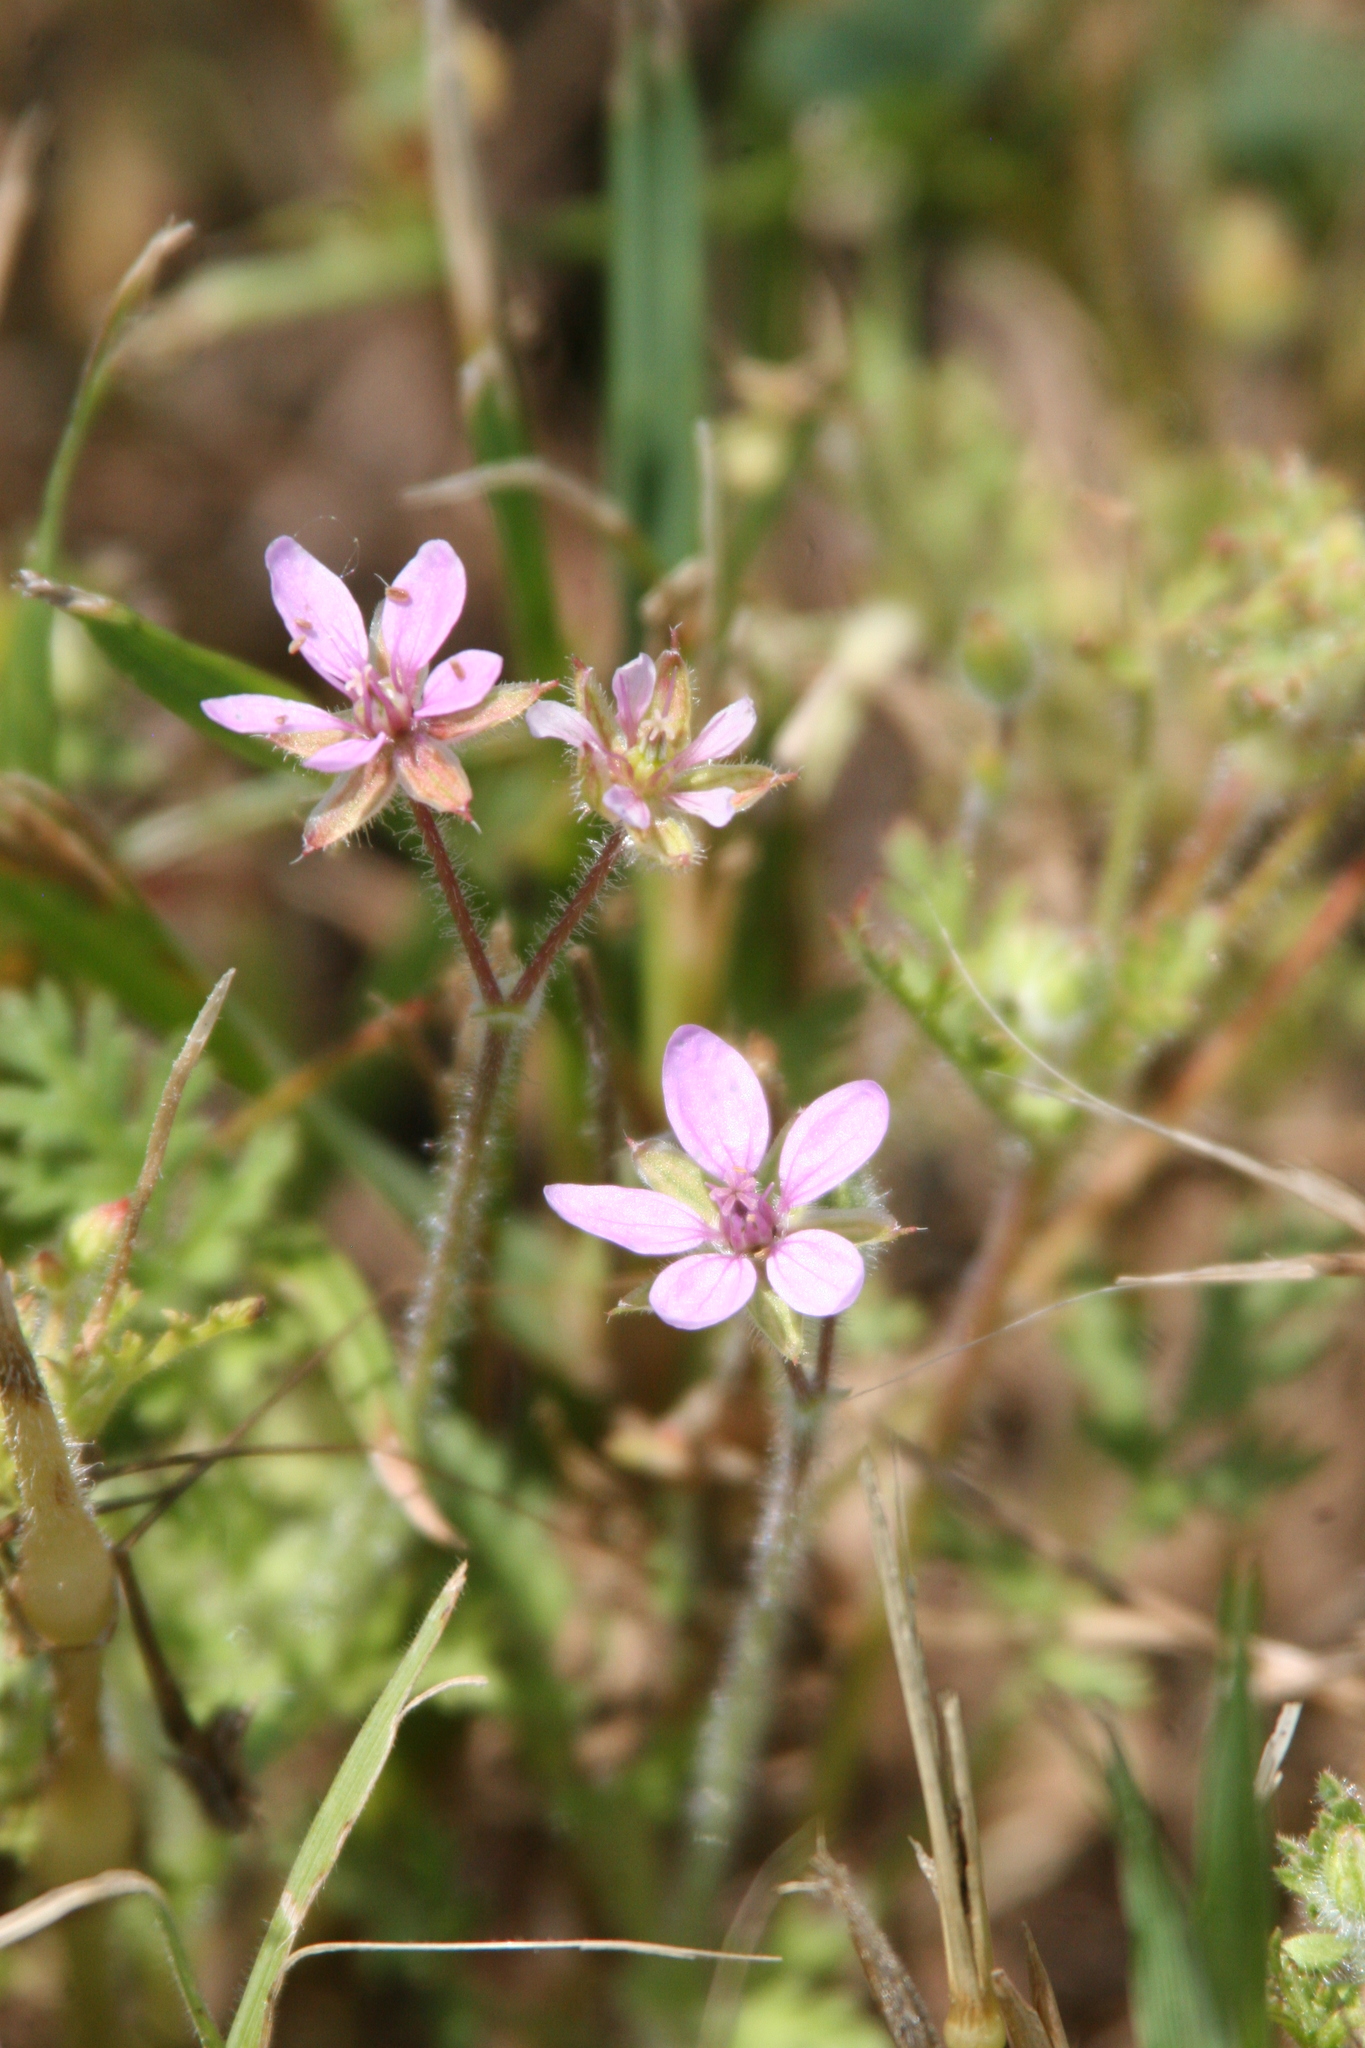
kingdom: Plantae
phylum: Tracheophyta
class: Magnoliopsida
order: Geraniales
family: Geraniaceae
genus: Erodium
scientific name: Erodium cicutarium
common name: Common stork's-bill
